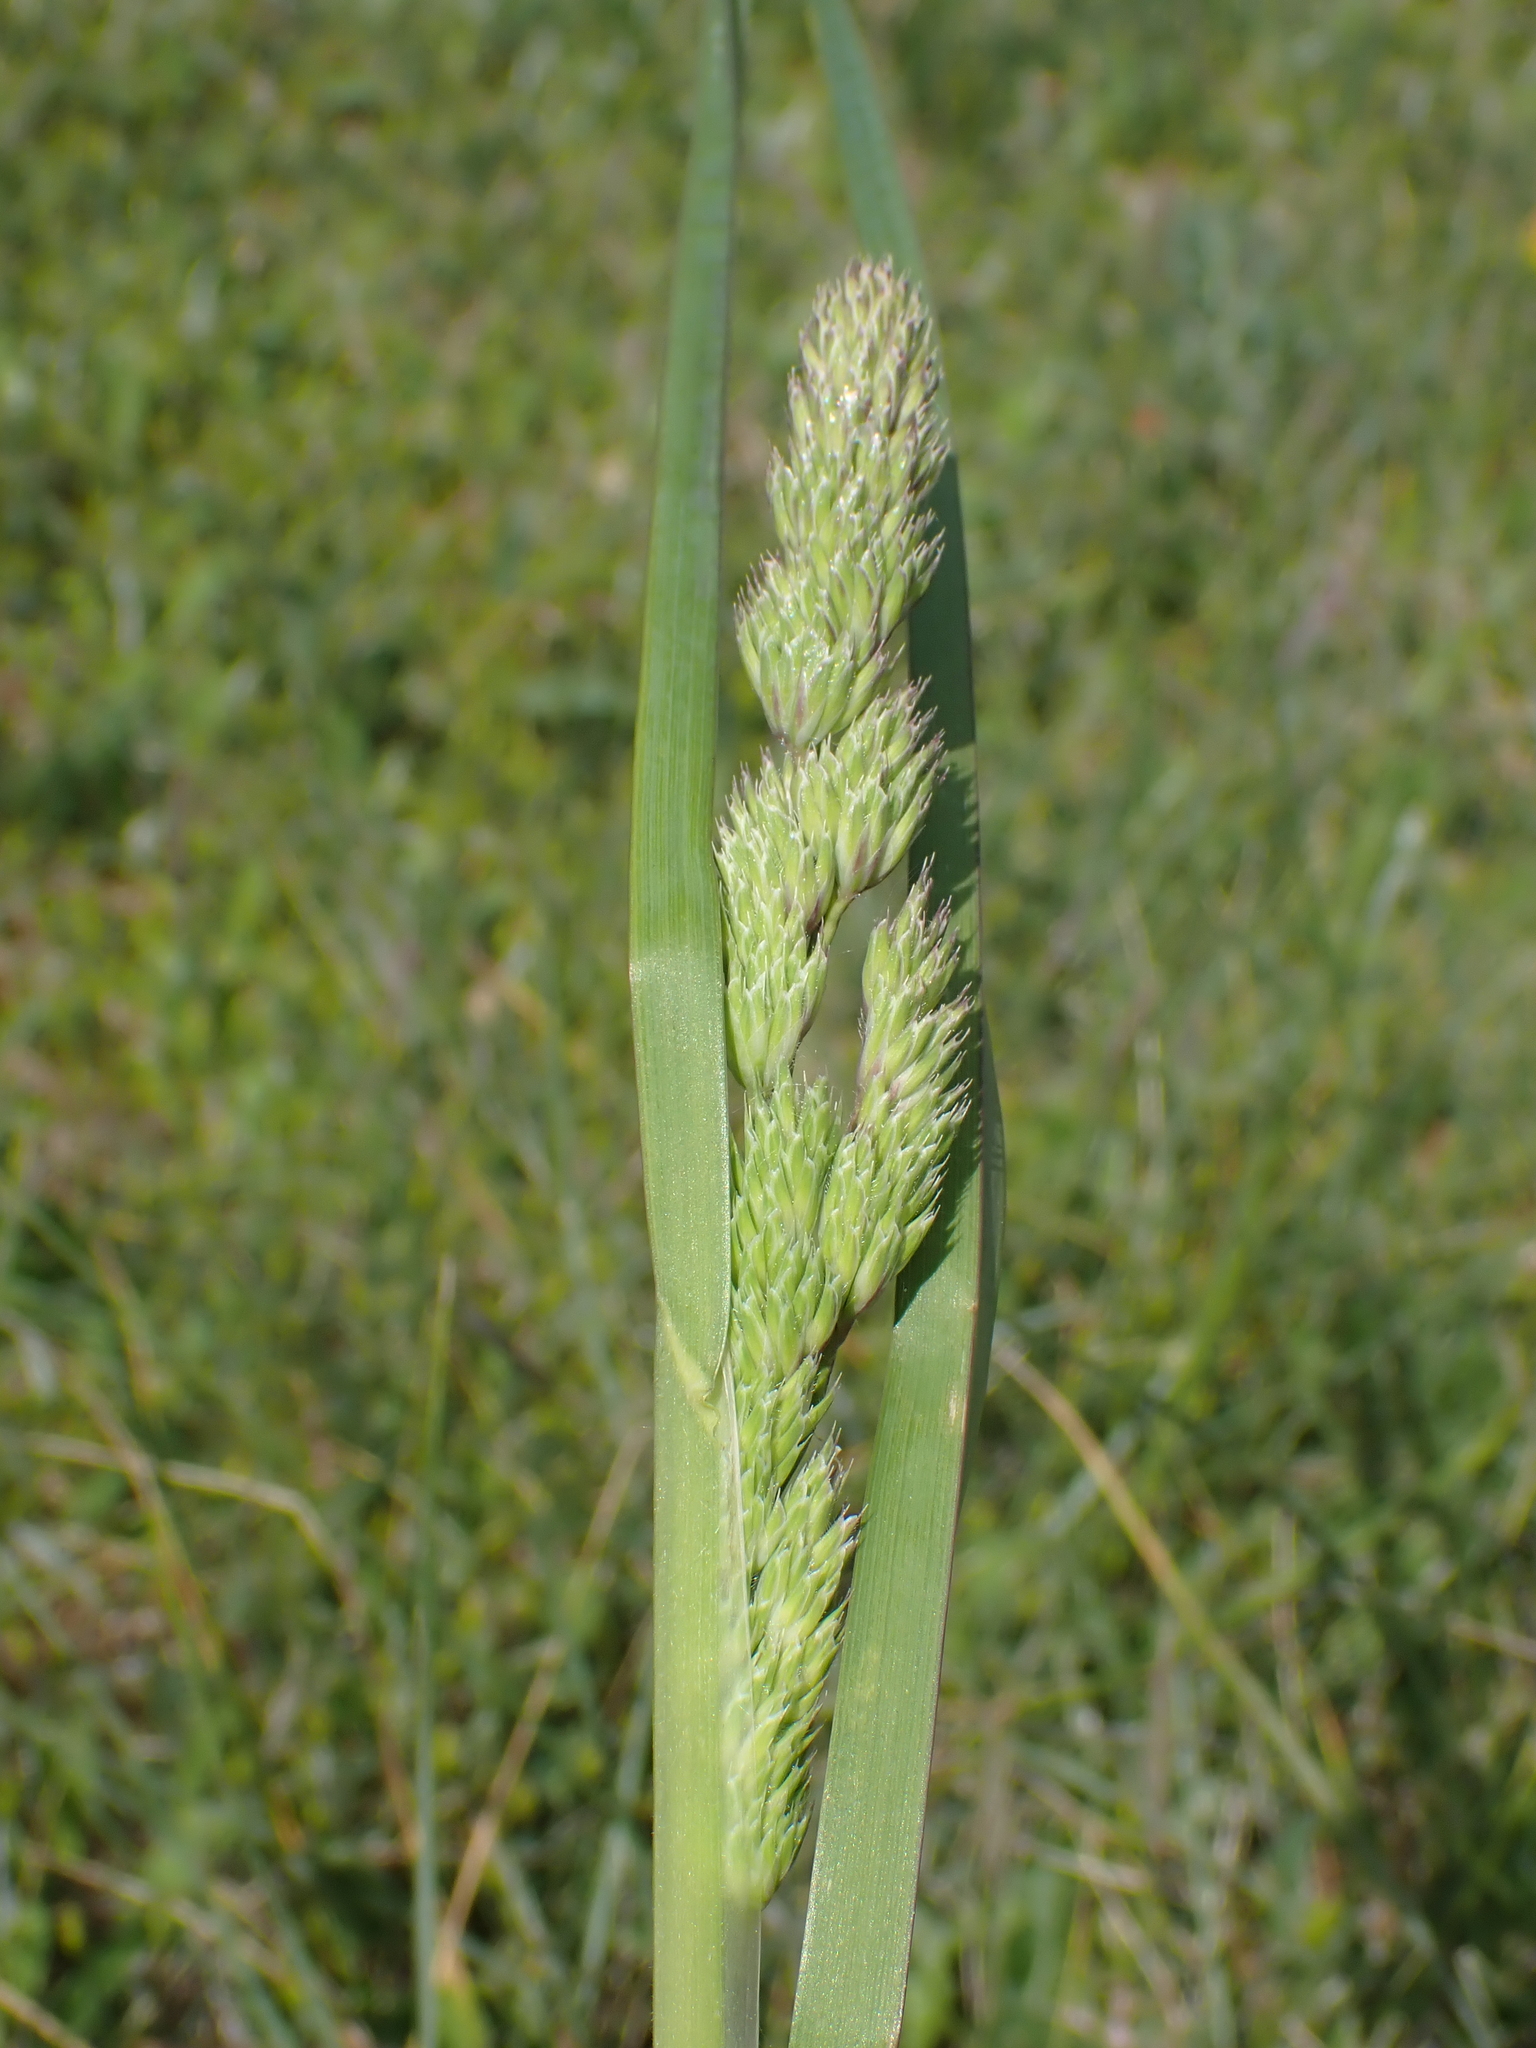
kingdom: Plantae
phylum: Tracheophyta
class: Liliopsida
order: Poales
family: Poaceae
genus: Dactylis
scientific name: Dactylis glomerata
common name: Orchardgrass
